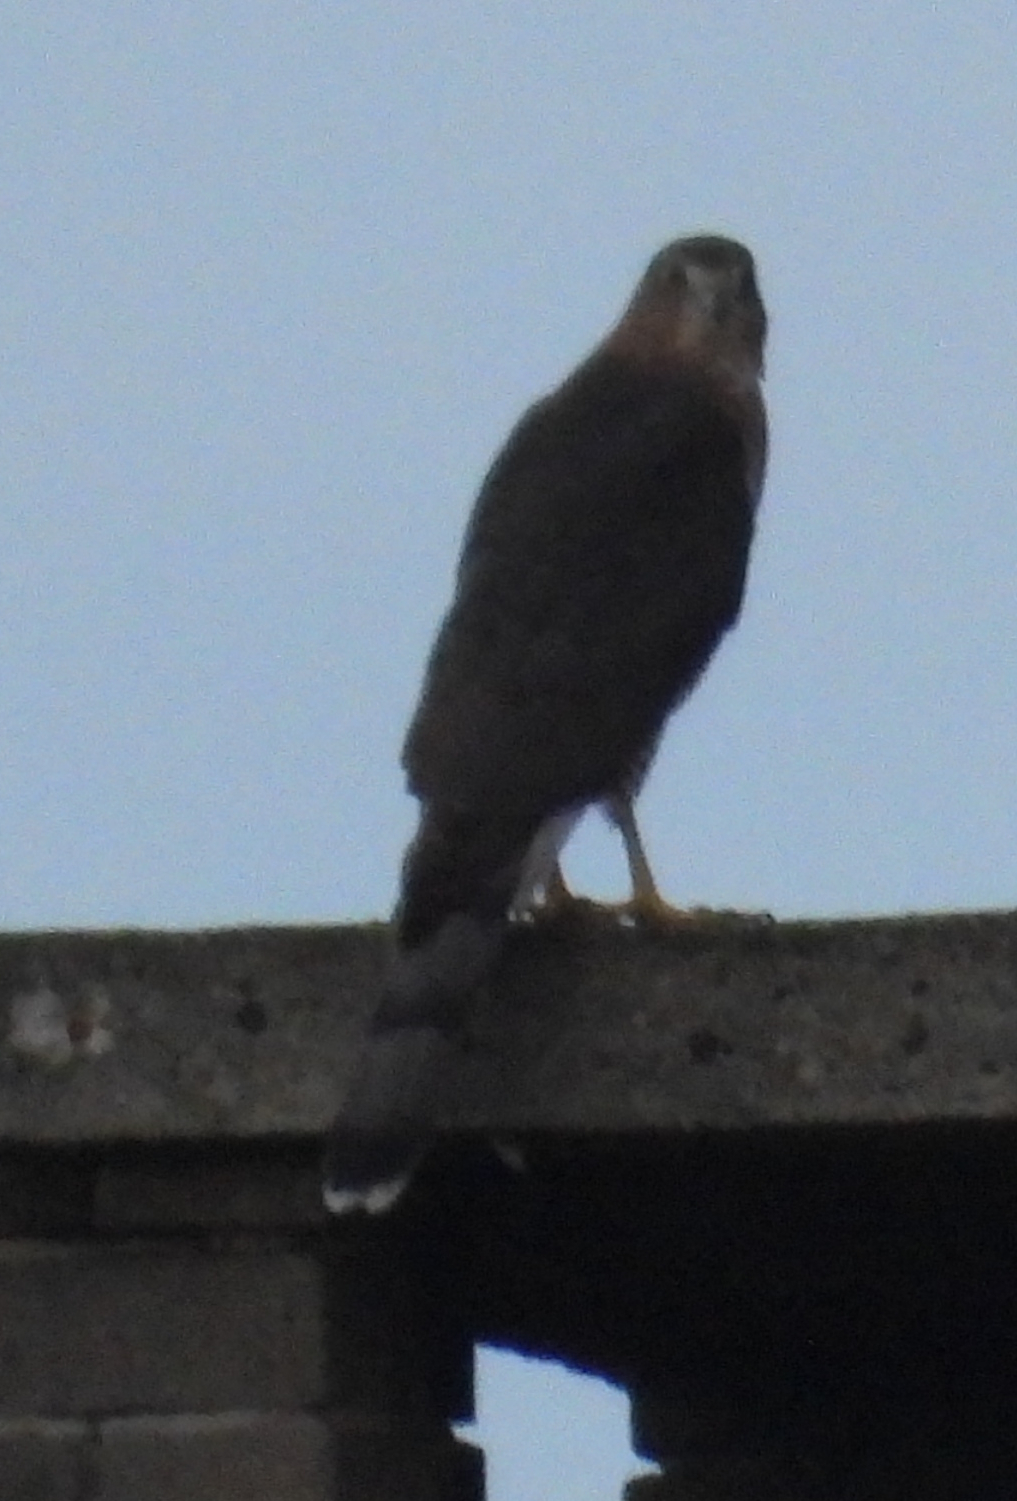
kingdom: Animalia
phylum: Chordata
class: Aves
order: Accipitriformes
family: Accipitridae
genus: Accipiter
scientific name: Accipiter cooperii
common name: Cooper's hawk
